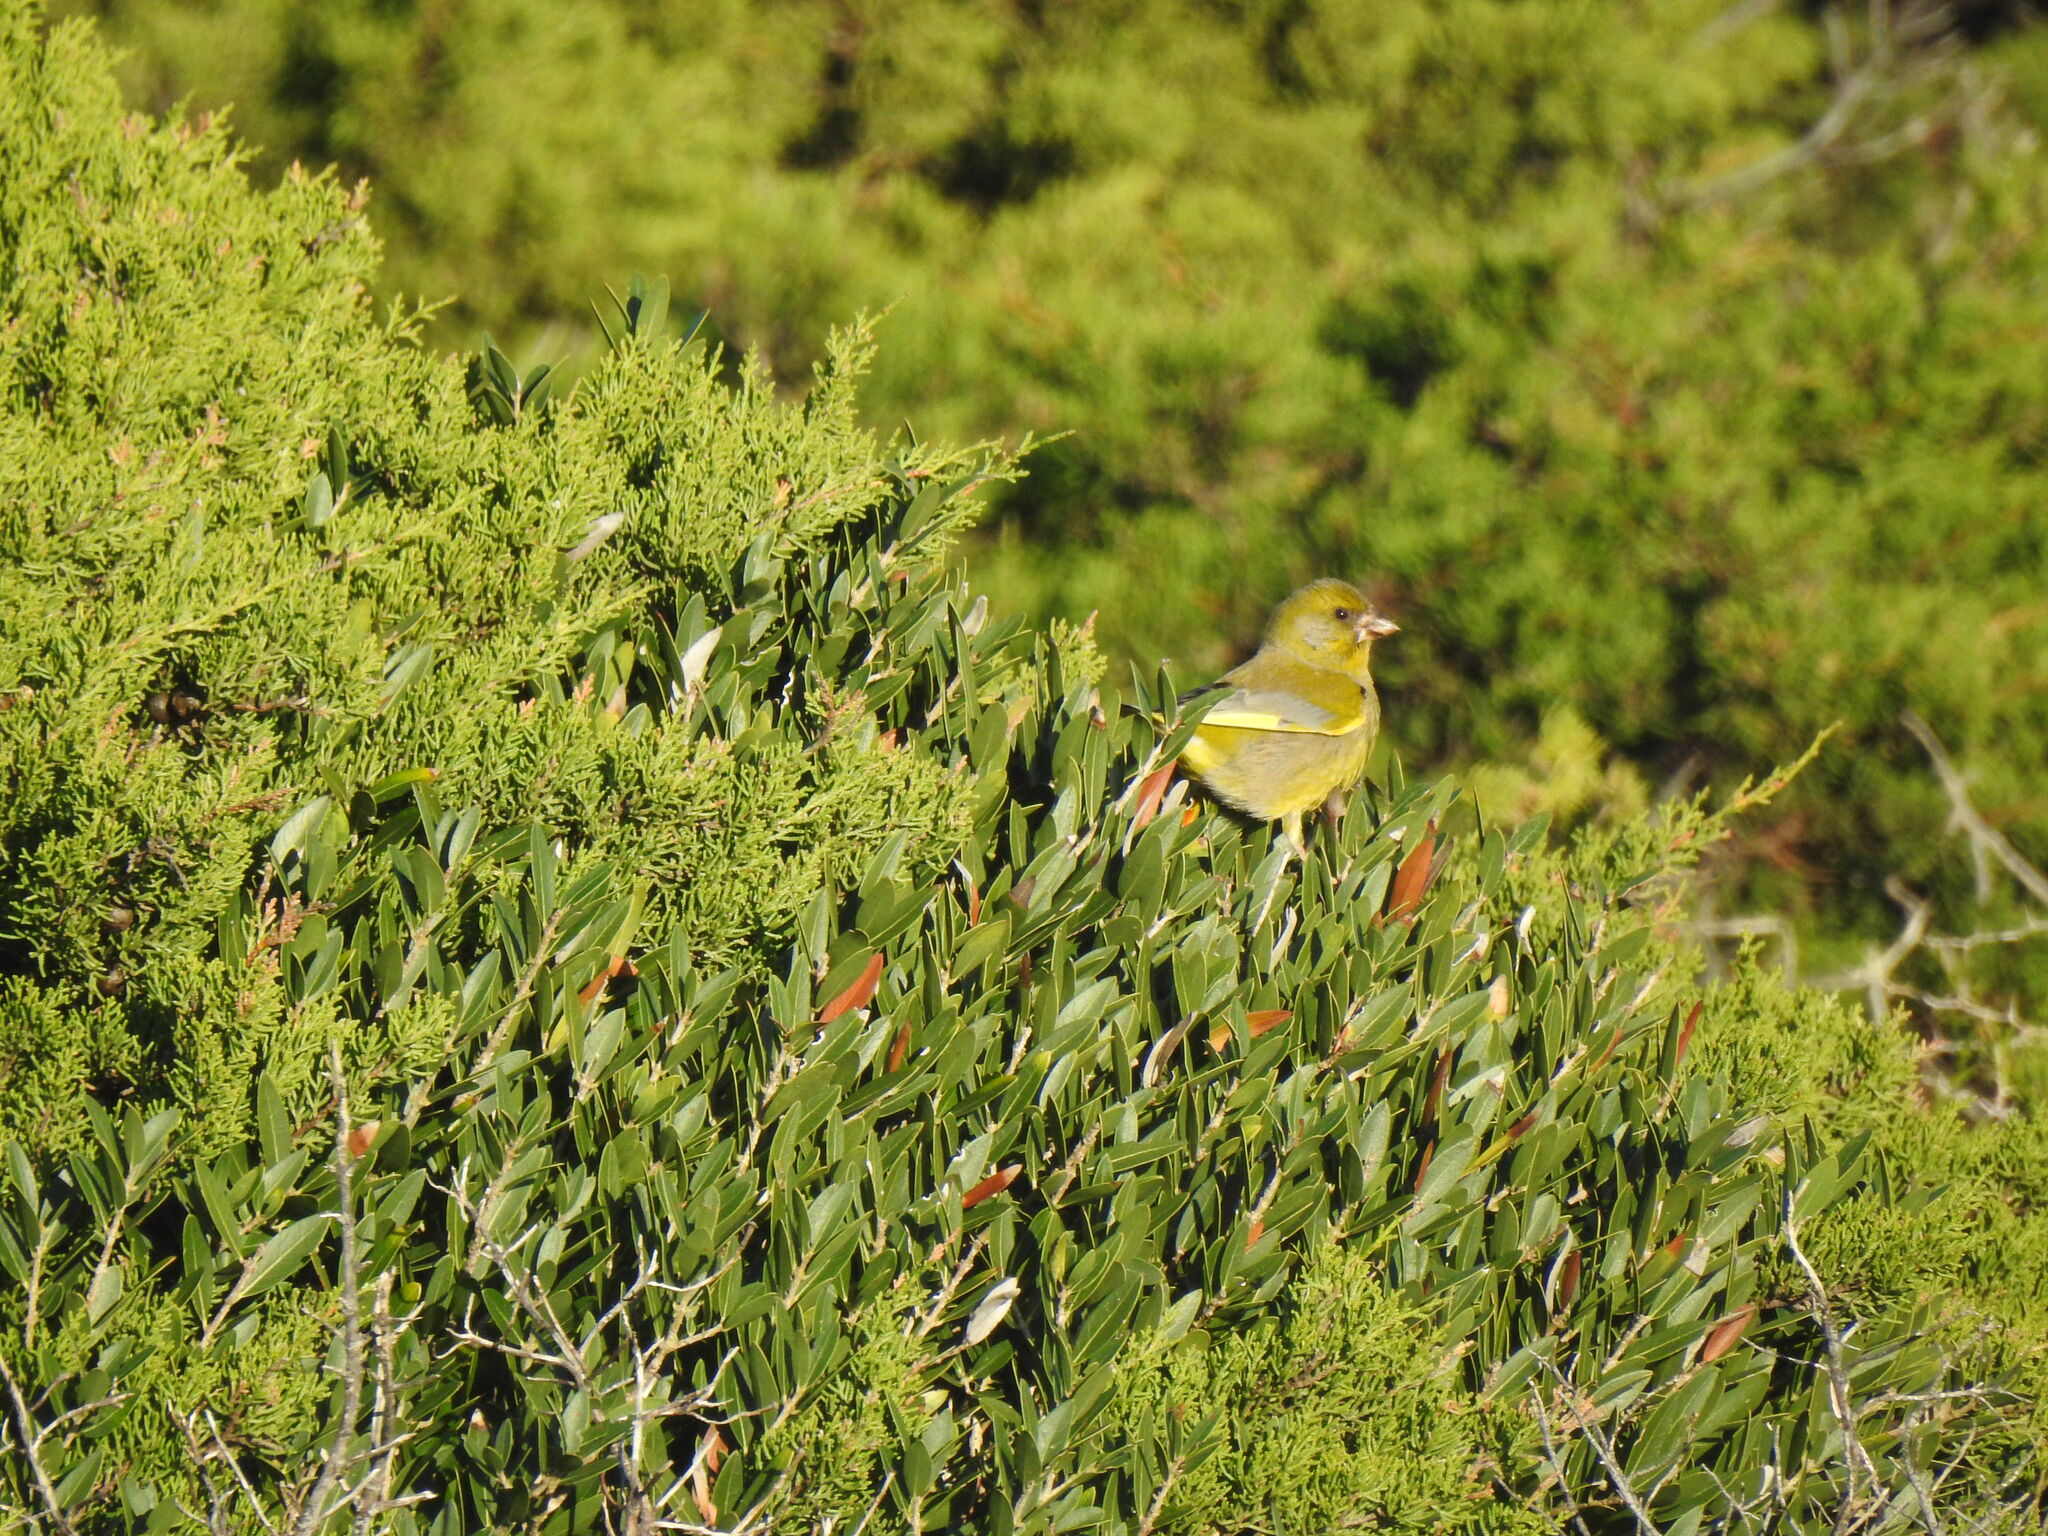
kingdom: Plantae
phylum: Tracheophyta
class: Liliopsida
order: Poales
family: Poaceae
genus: Chloris
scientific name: Chloris chloris
